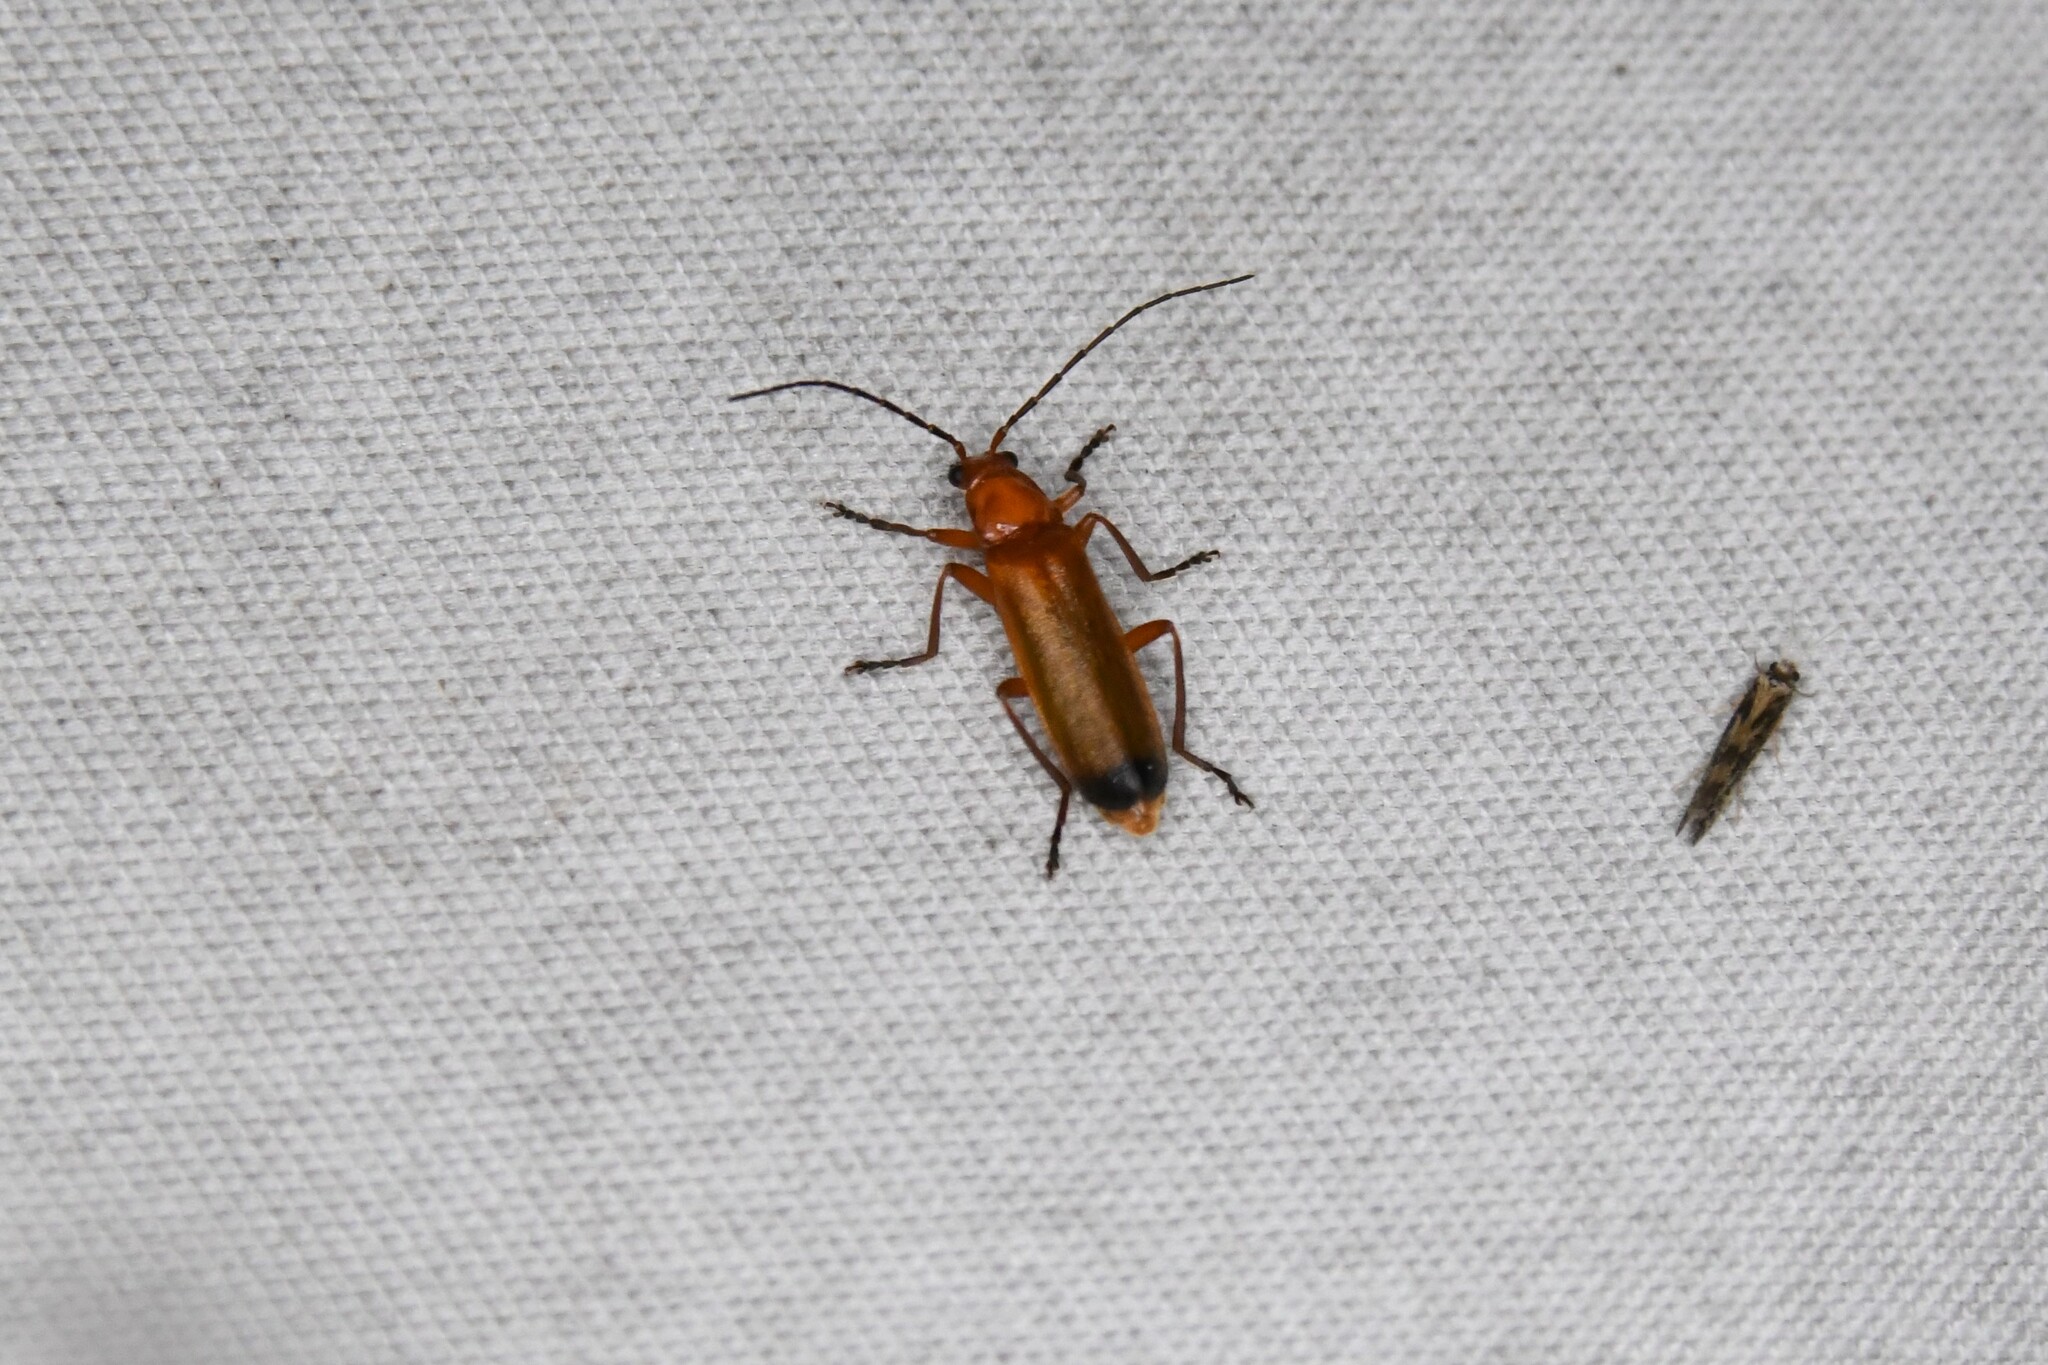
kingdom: Animalia
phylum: Arthropoda
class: Insecta
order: Coleoptera
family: Cantharidae
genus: Rhagonycha
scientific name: Rhagonycha fulva
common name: Common red soldier beetle
